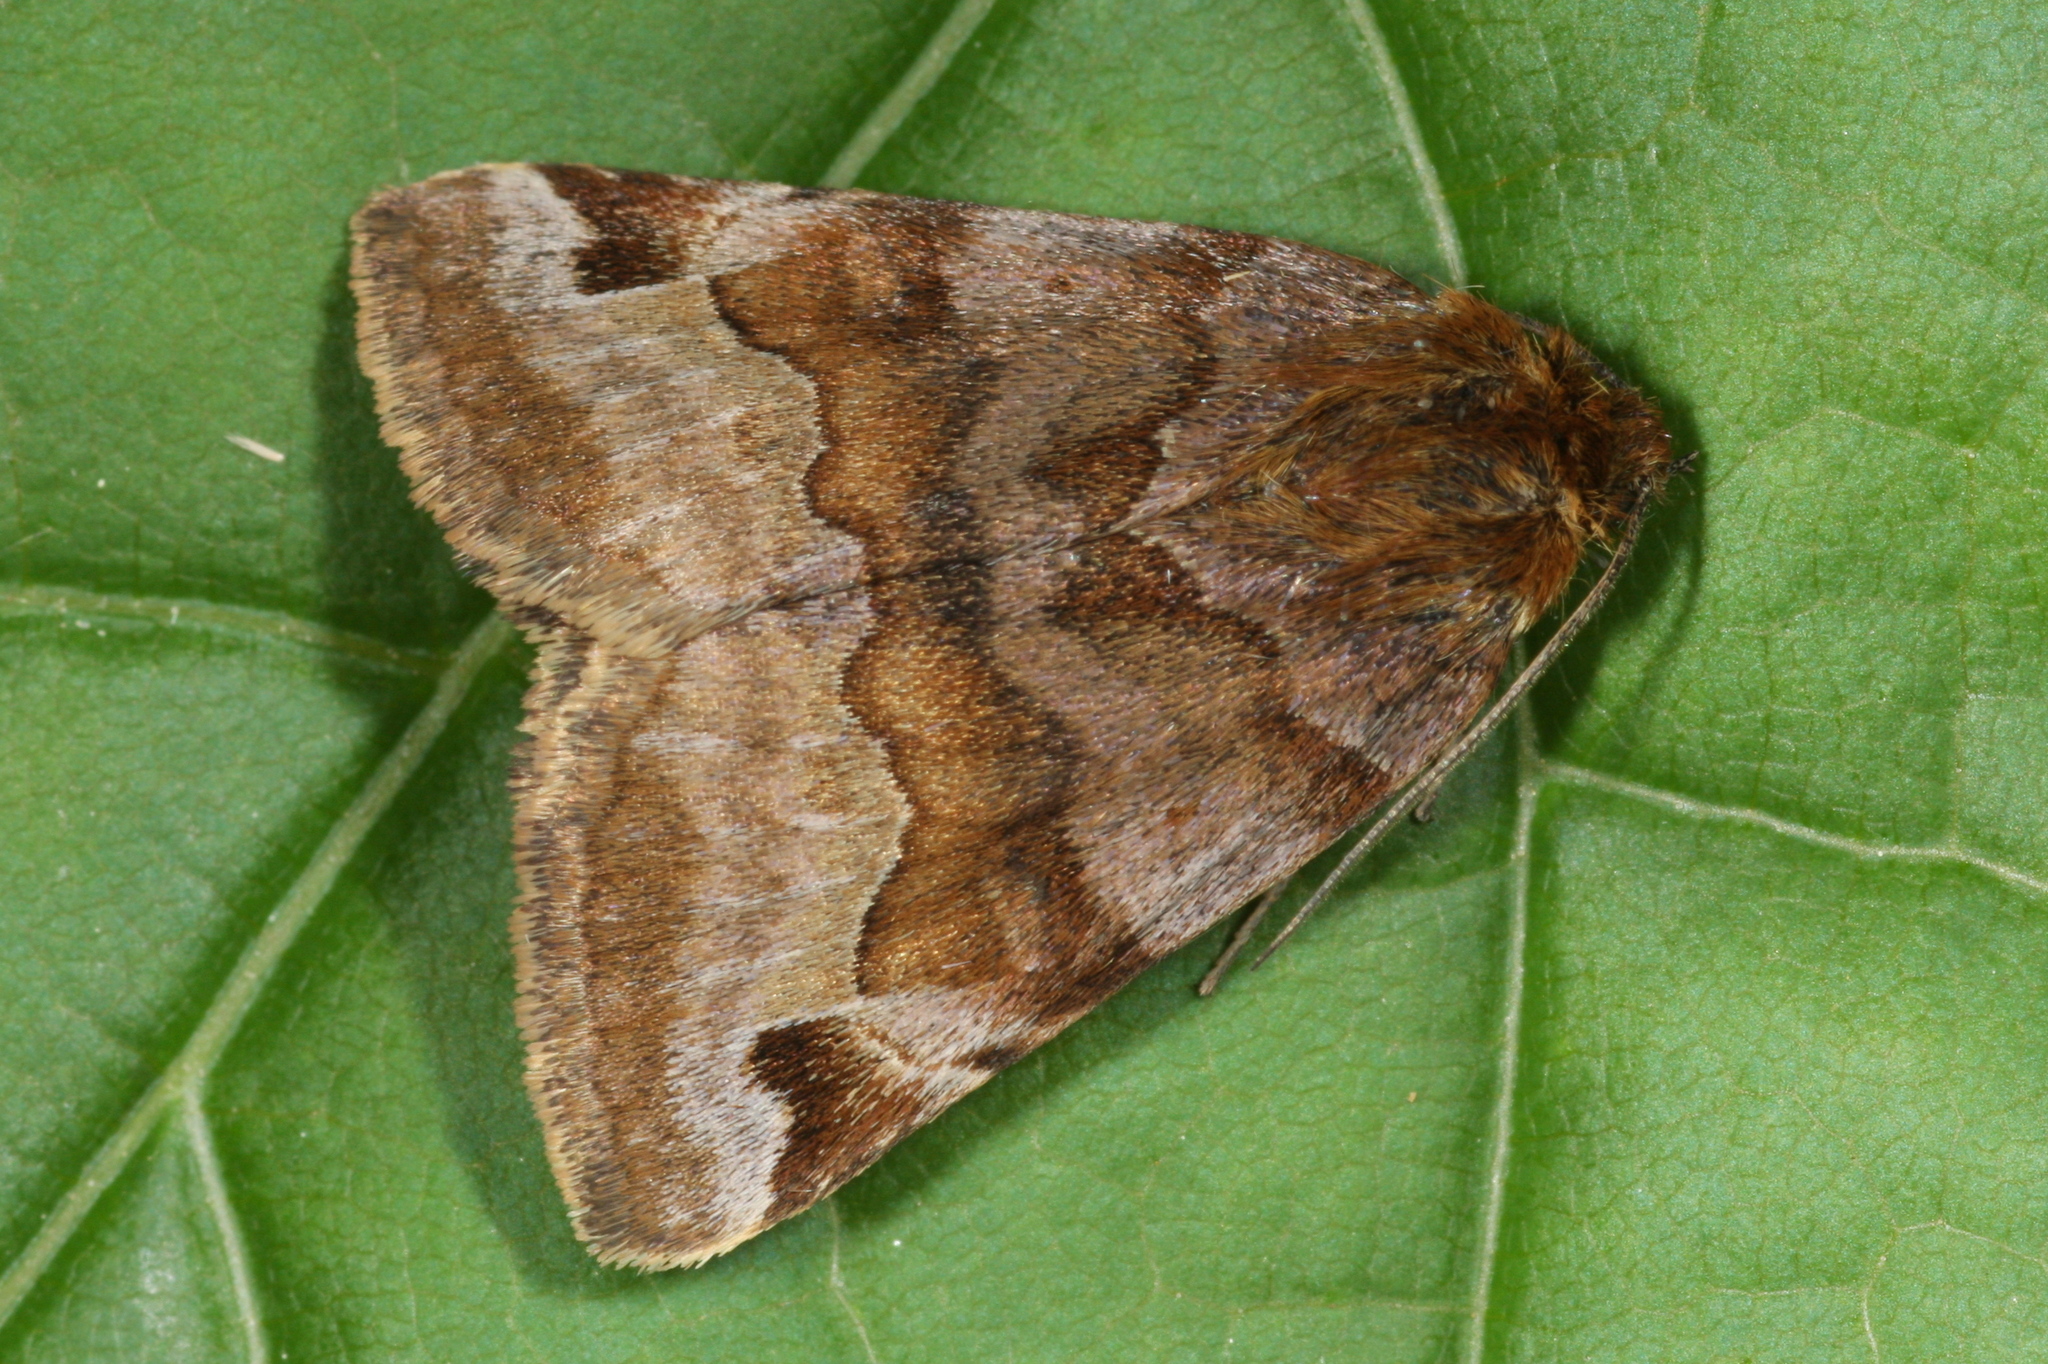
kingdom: Animalia
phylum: Arthropoda
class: Insecta
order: Lepidoptera
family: Erebidae
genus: Euclidia
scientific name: Euclidia glyphica
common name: Burnet companion
